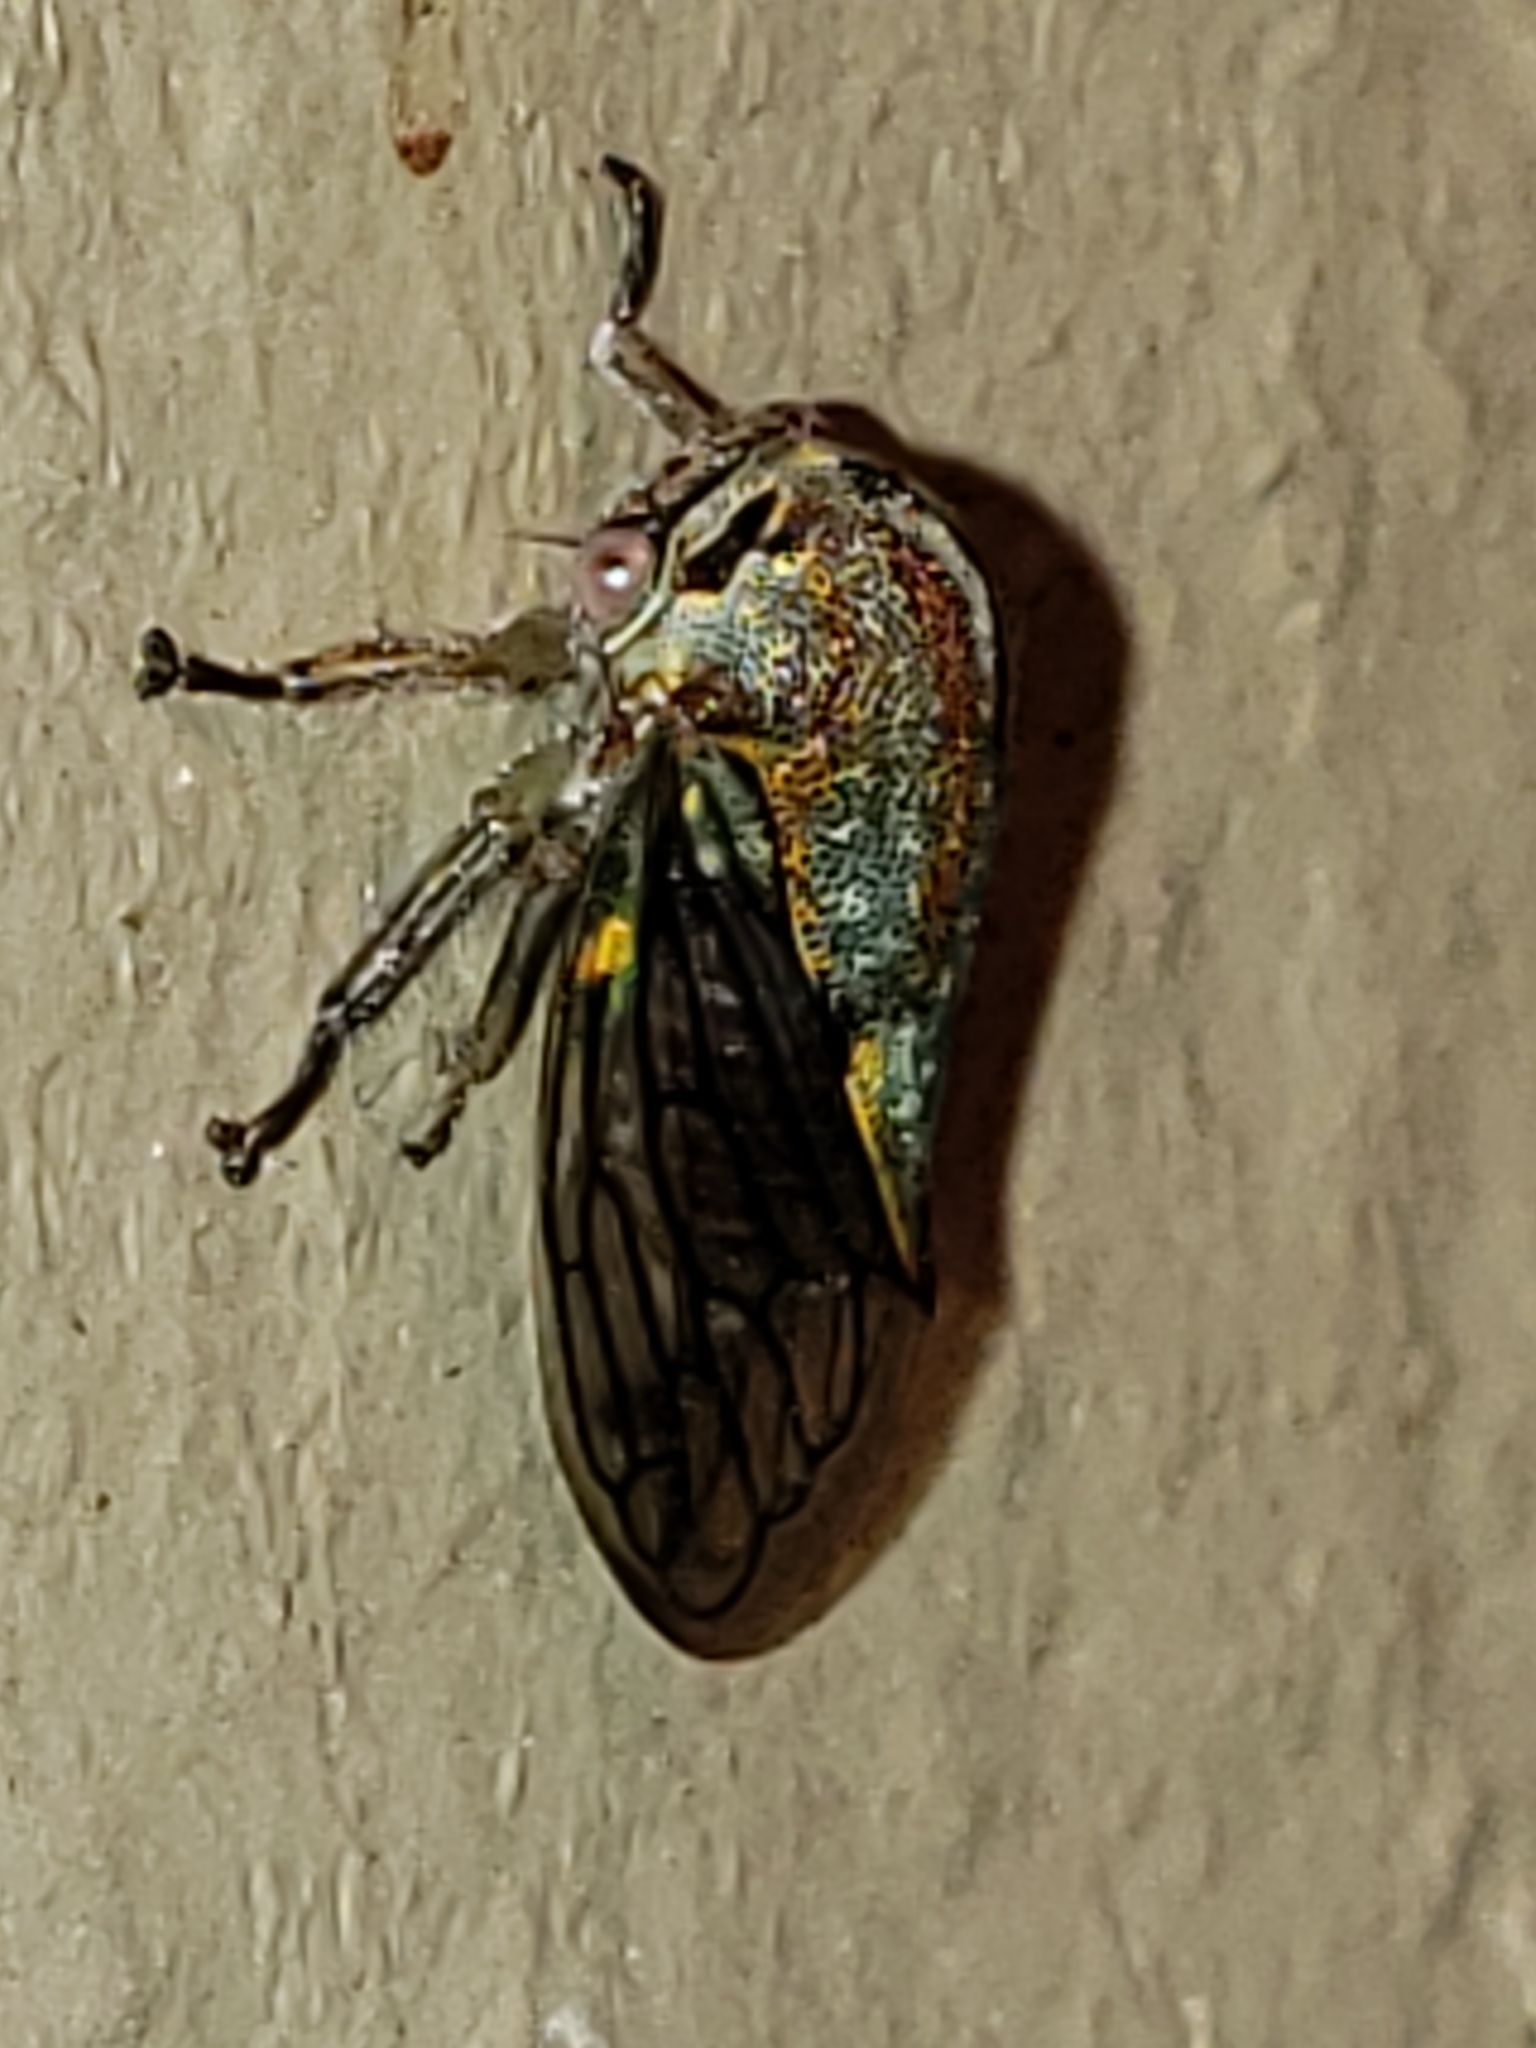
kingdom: Animalia
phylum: Arthropoda
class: Insecta
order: Hemiptera
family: Membracidae
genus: Platycotis
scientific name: Platycotis vittatus
